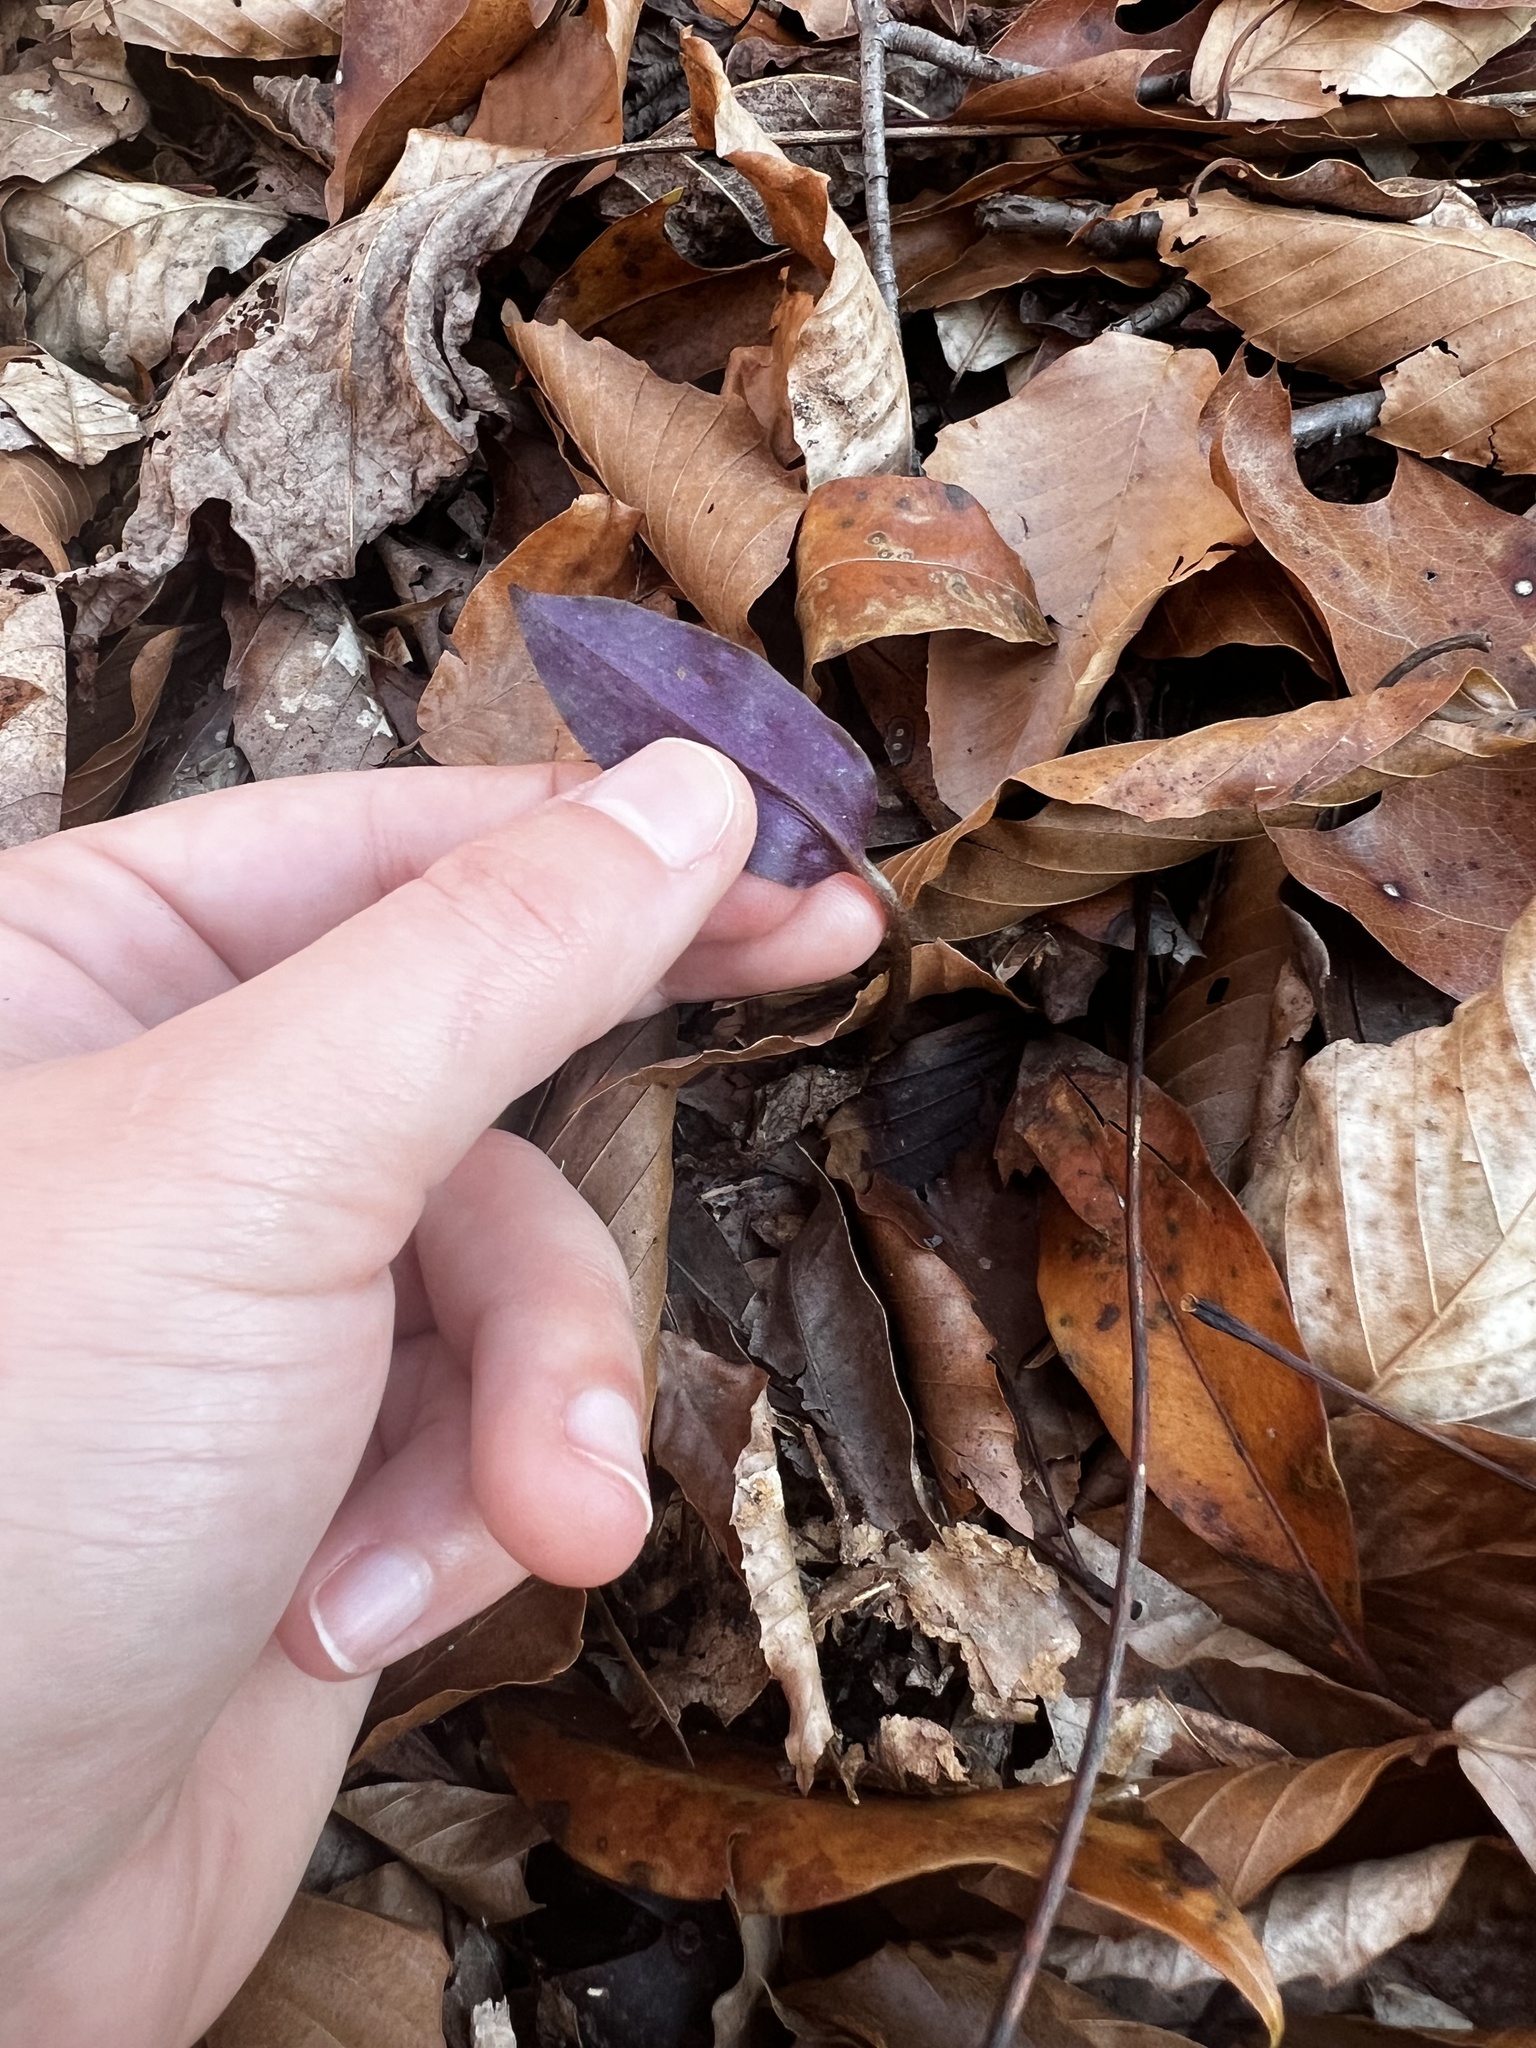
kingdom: Plantae
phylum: Tracheophyta
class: Liliopsida
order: Asparagales
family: Orchidaceae
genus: Tipularia
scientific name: Tipularia discolor
